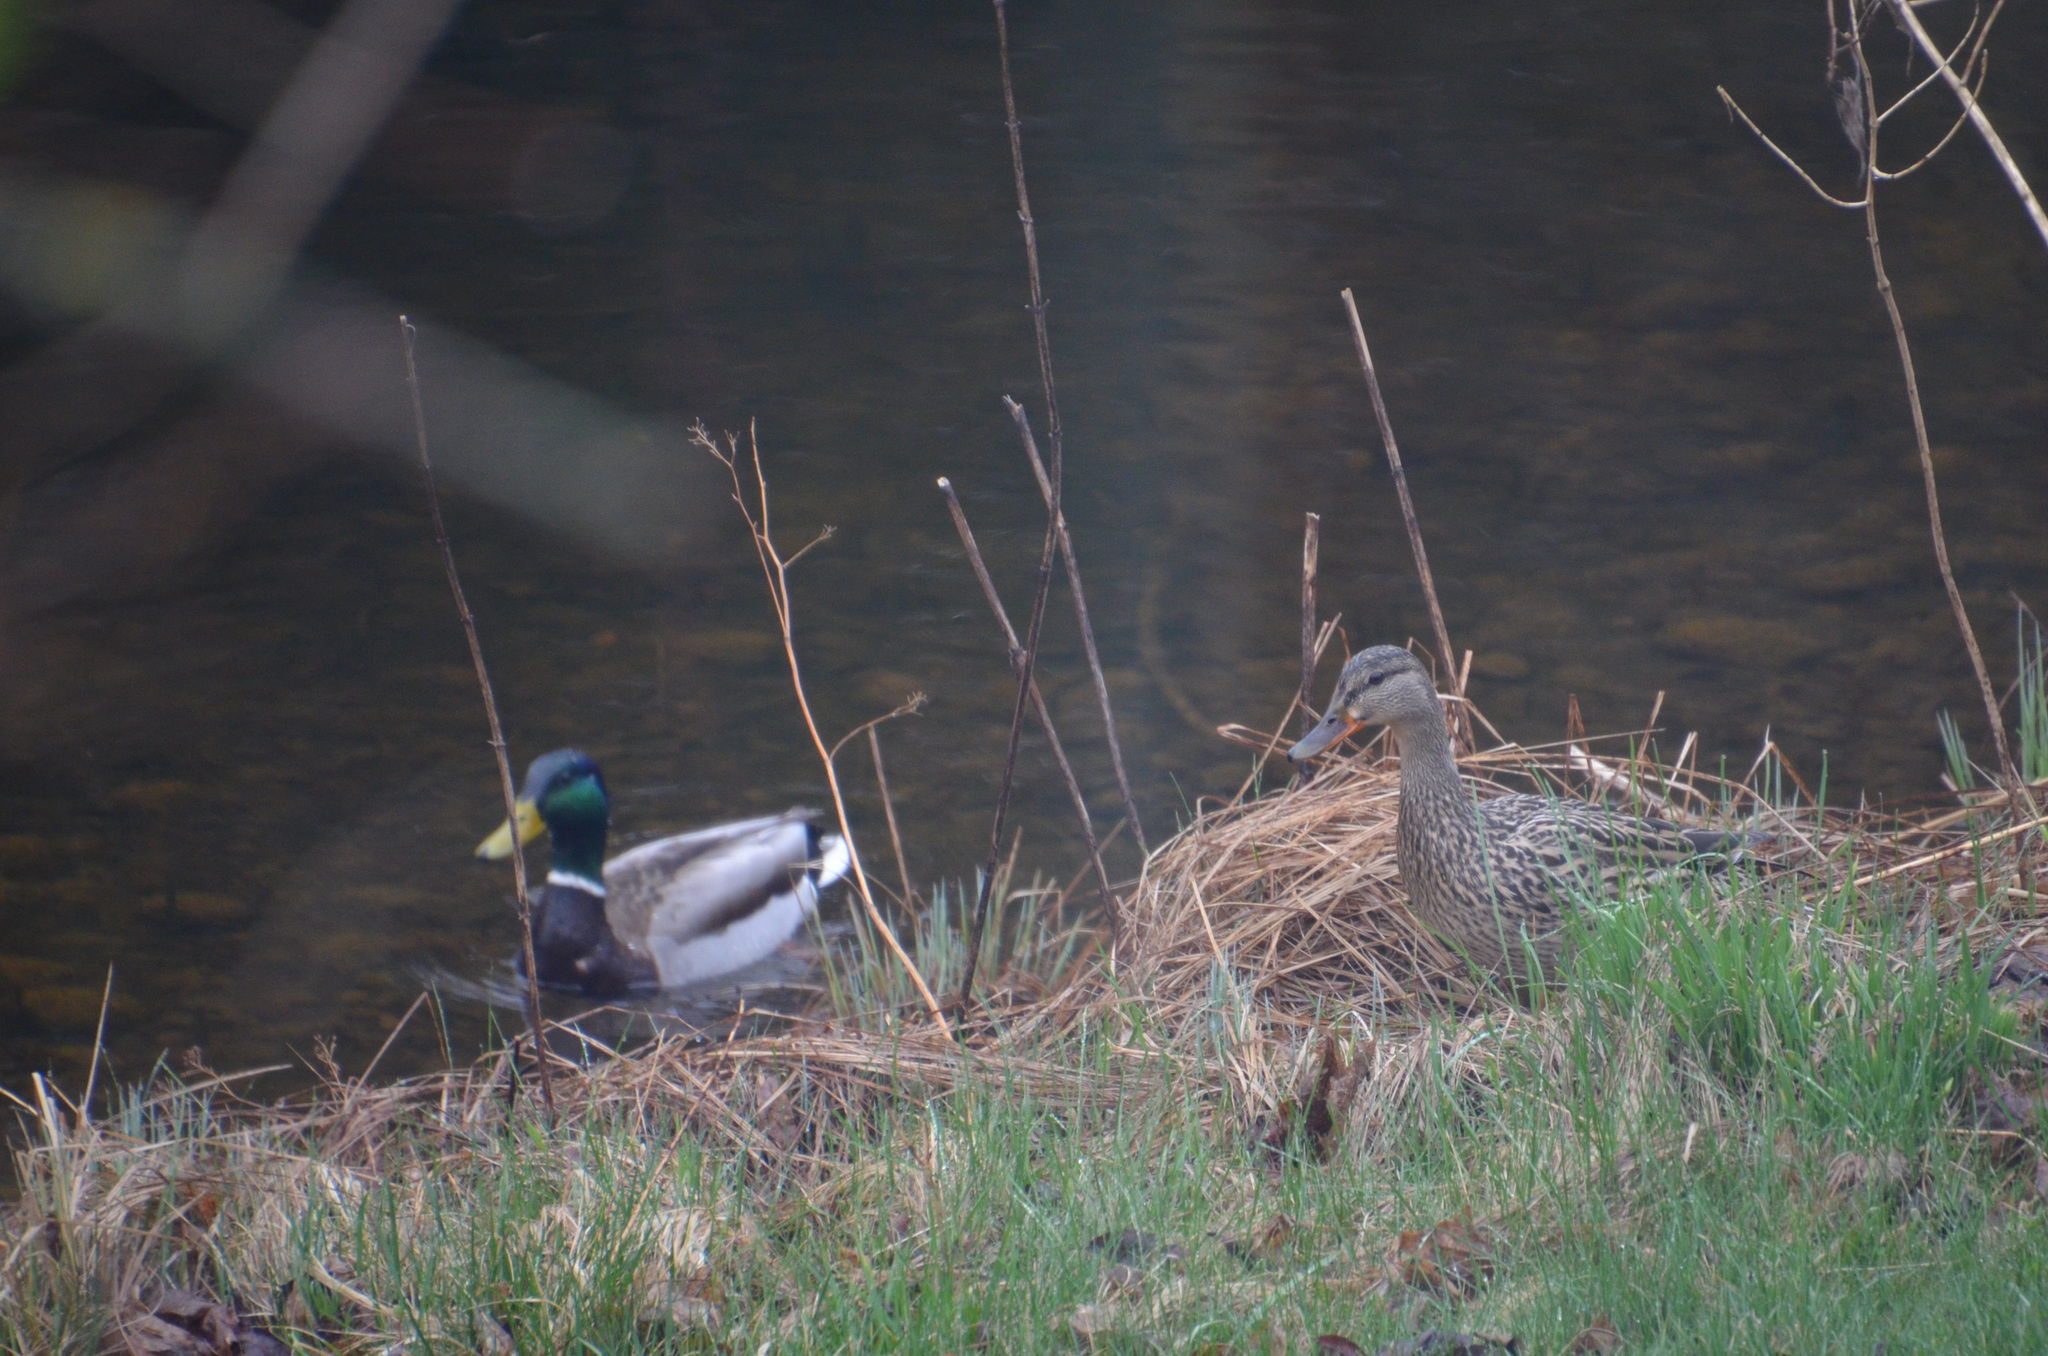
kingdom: Animalia
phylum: Chordata
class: Aves
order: Anseriformes
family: Anatidae
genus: Anas
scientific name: Anas platyrhynchos
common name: Mallard
